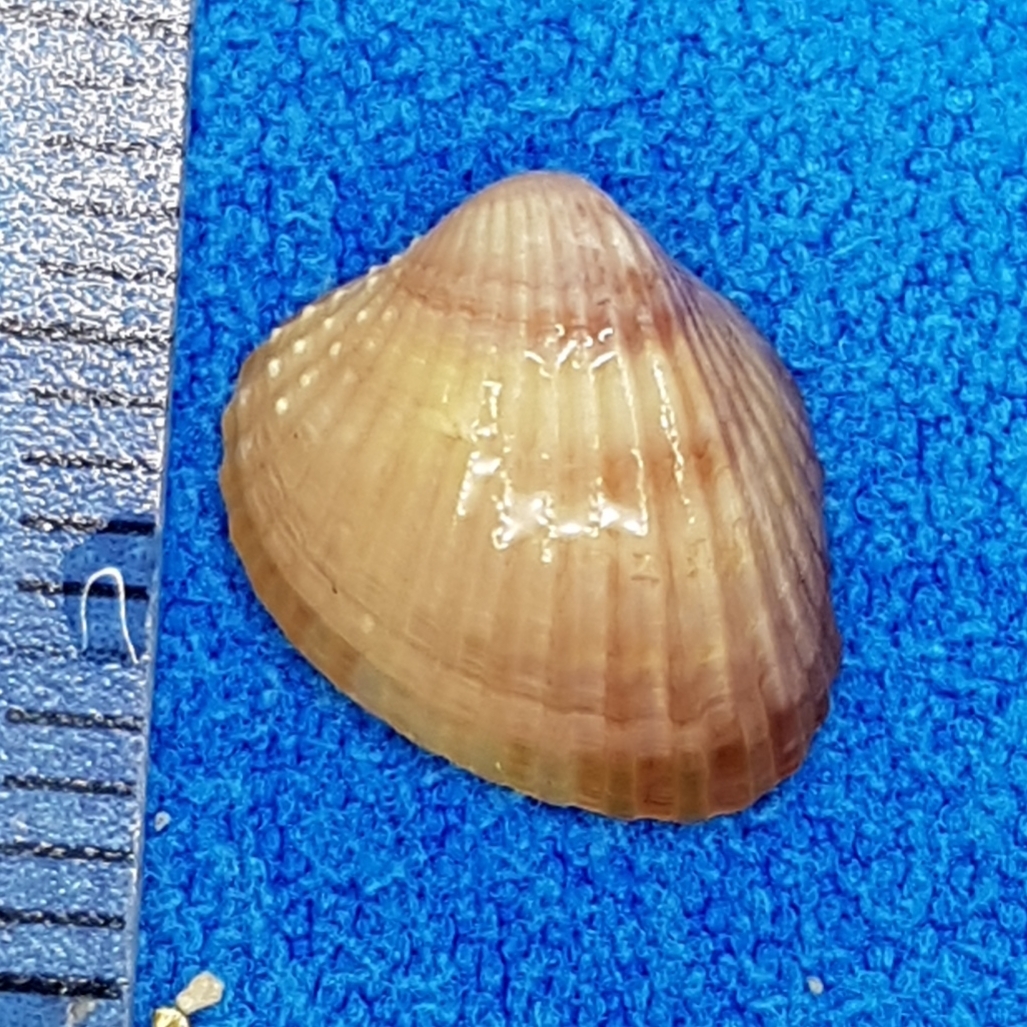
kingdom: Animalia
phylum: Mollusca
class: Bivalvia
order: Cardiida
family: Cardiidae
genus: Parvicardium
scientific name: Parvicardium exiguum
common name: Little cockle
